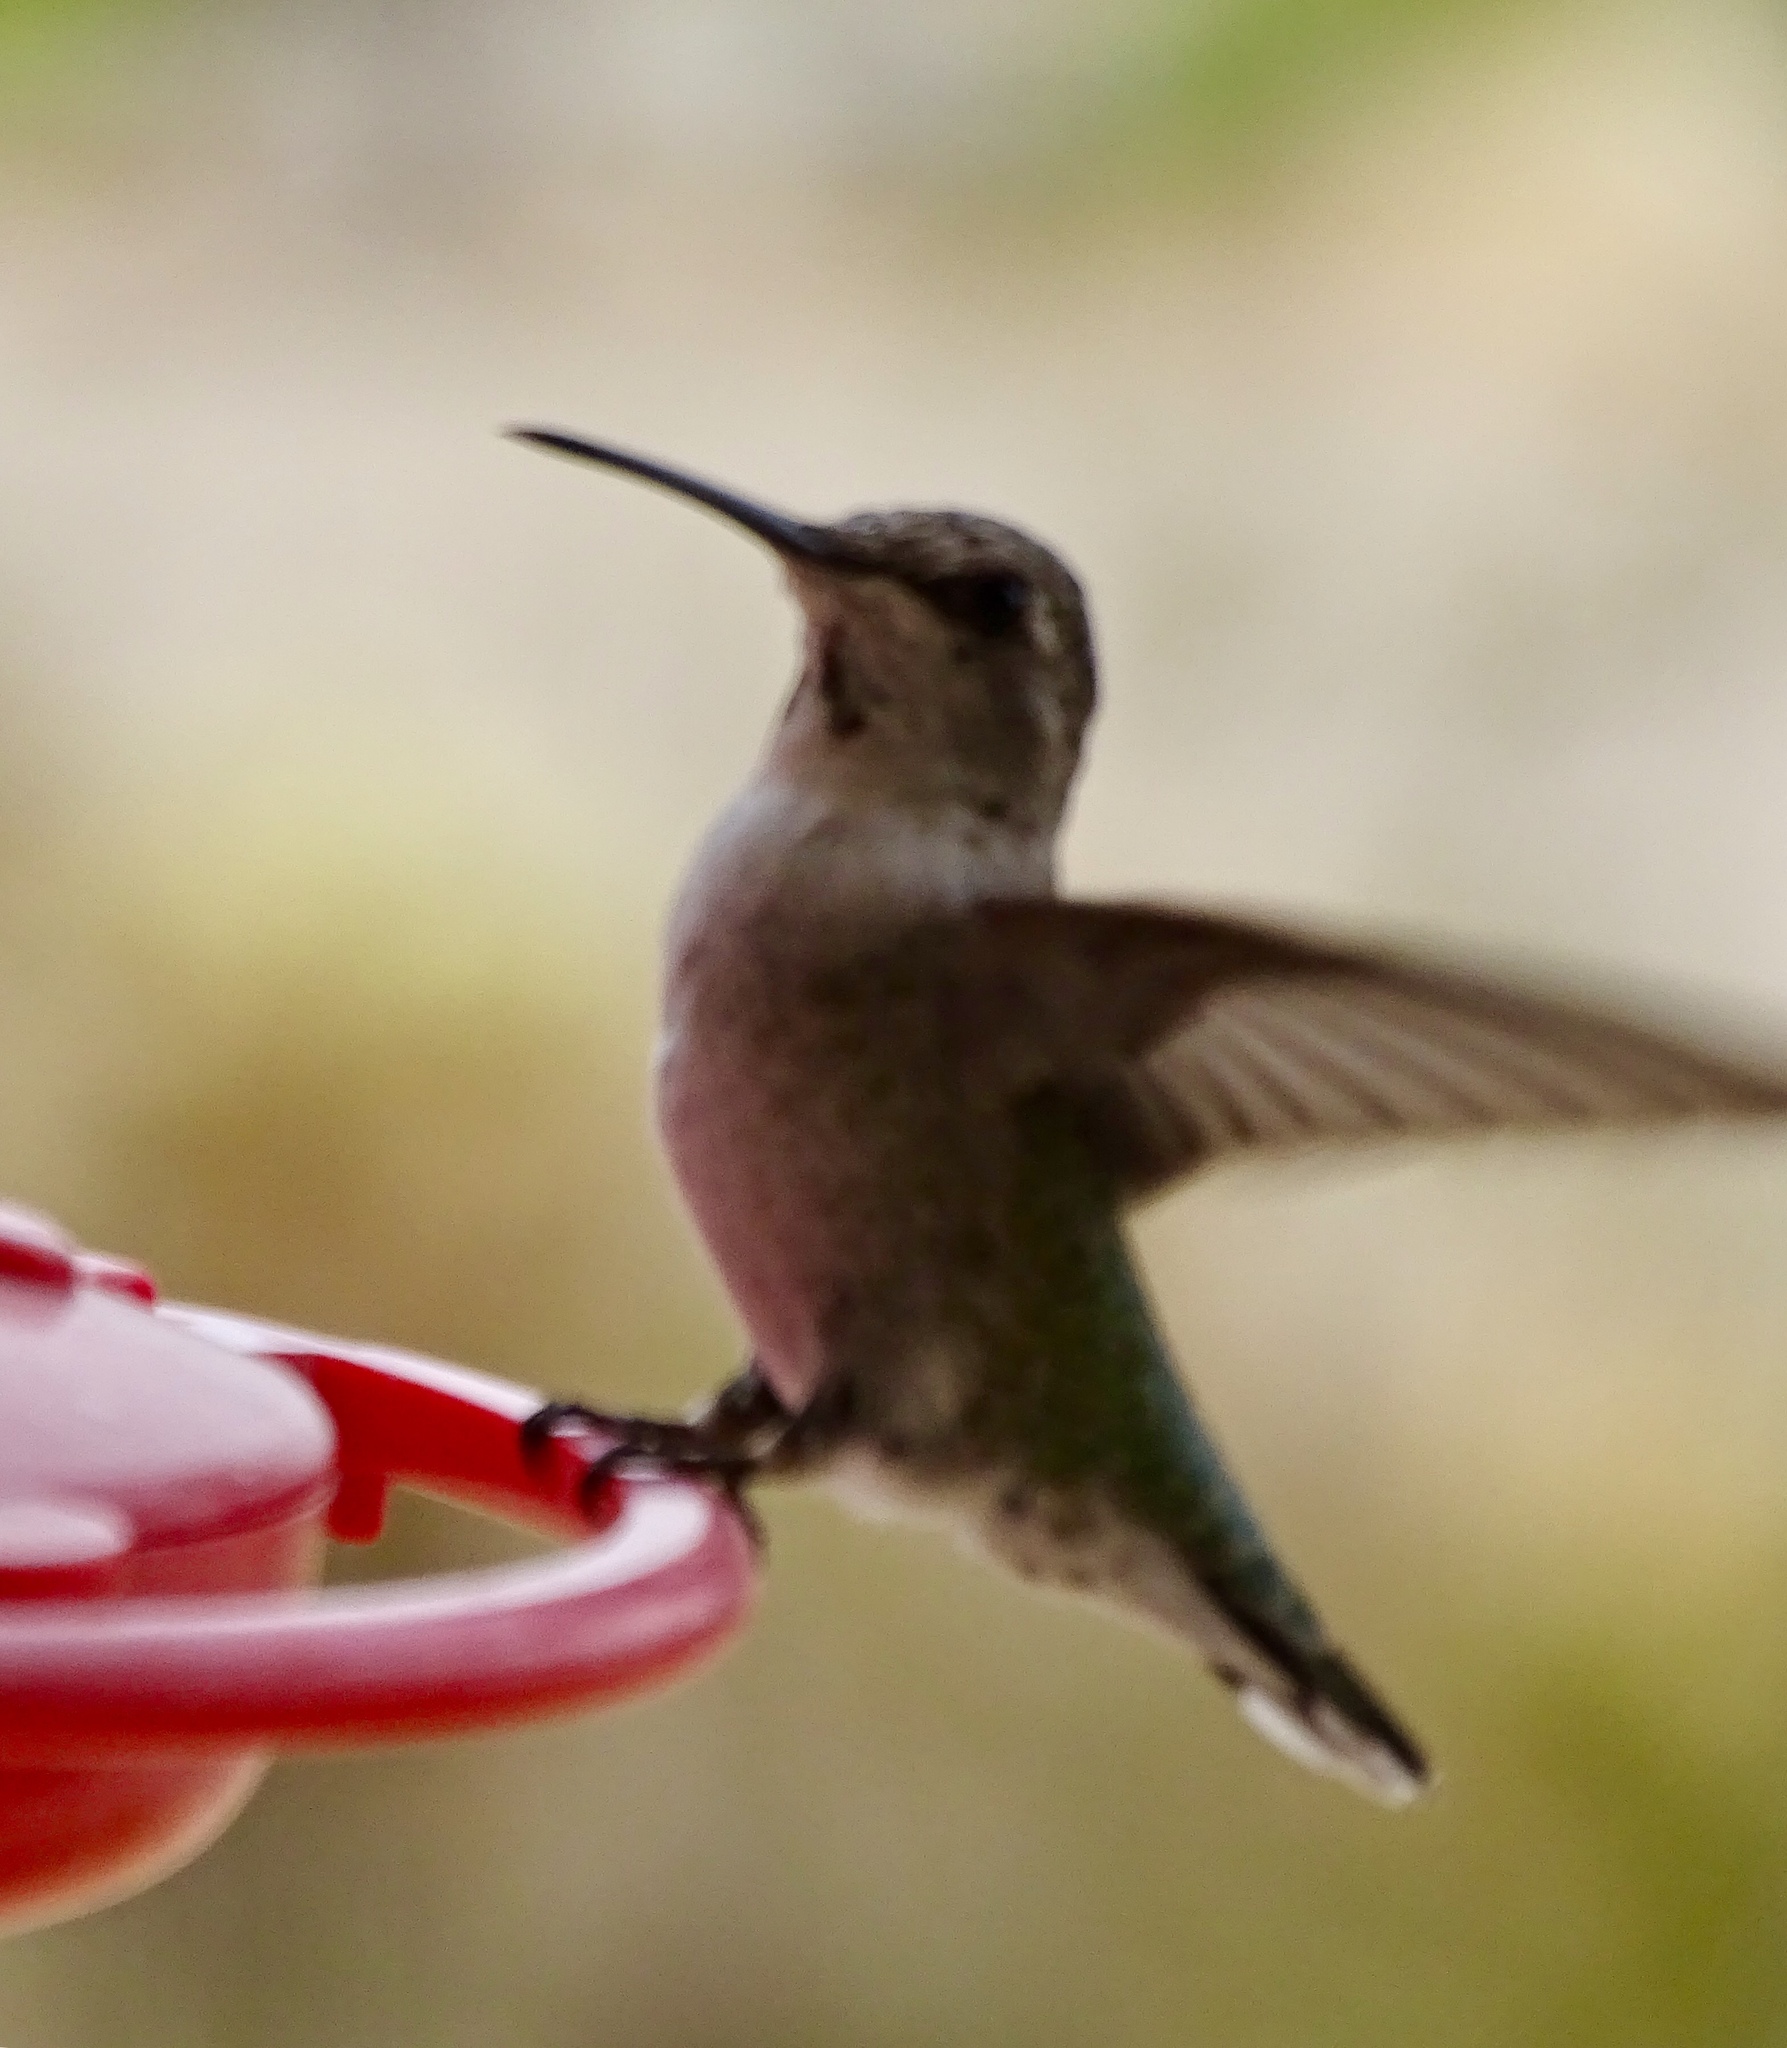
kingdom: Animalia
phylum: Chordata
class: Aves
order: Apodiformes
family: Trochilidae
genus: Calypte
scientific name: Calypte anna
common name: Anna's hummingbird
